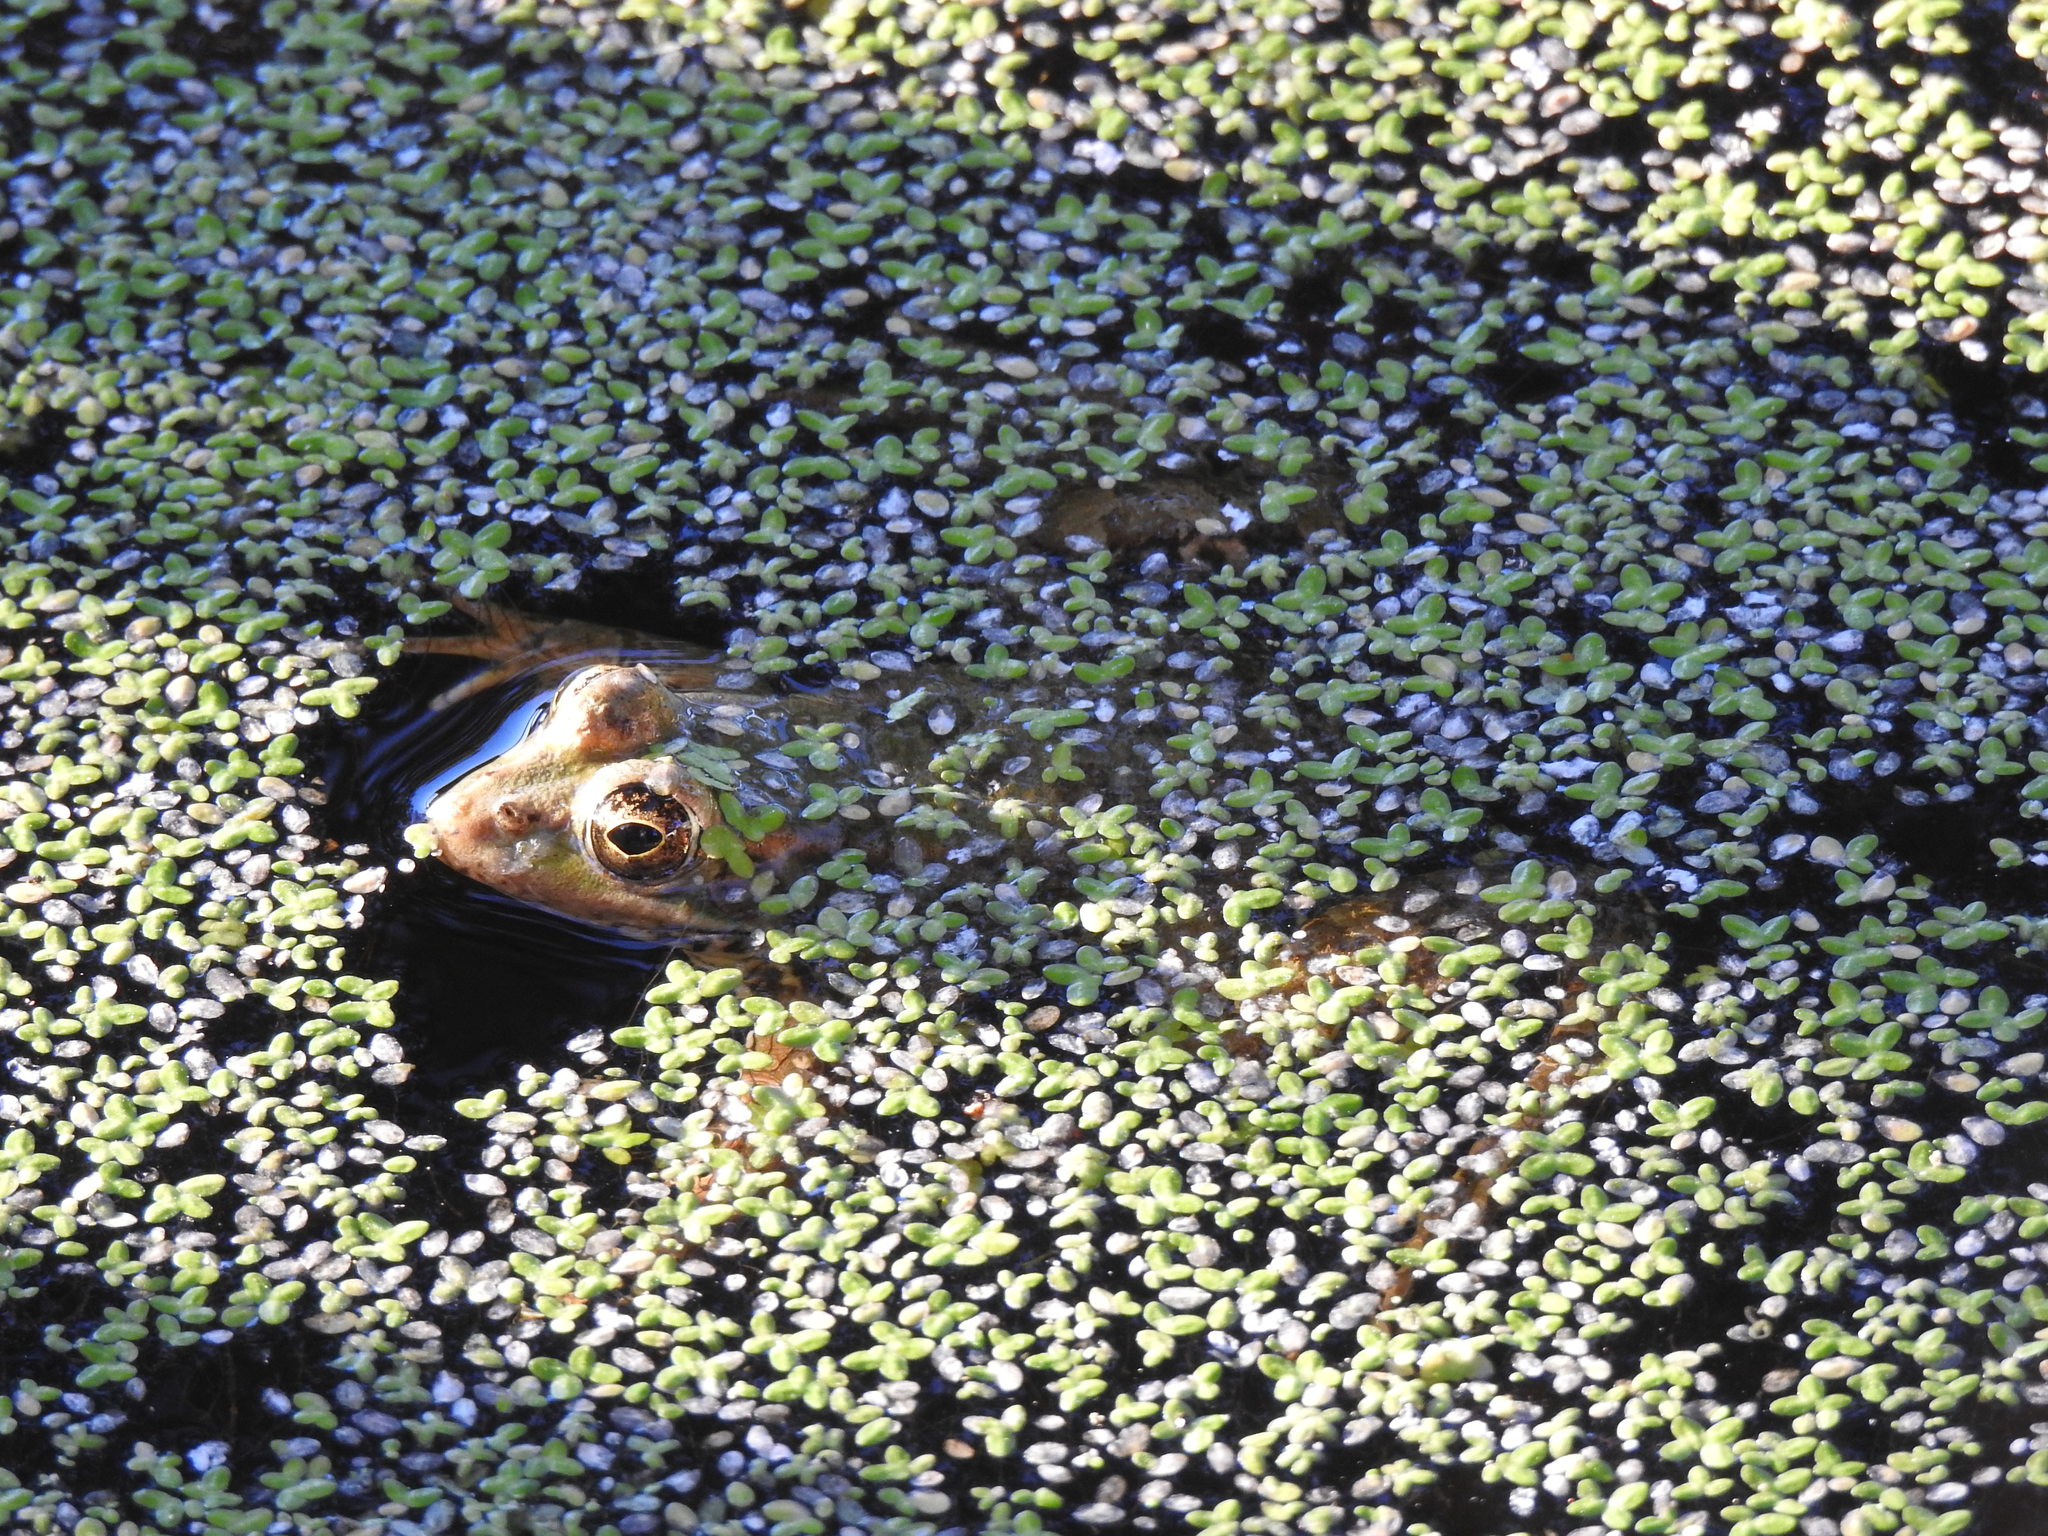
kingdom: Animalia
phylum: Chordata
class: Amphibia
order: Anura
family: Ranidae
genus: Pelophylax
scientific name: Pelophylax perezi
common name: Perez's frog
